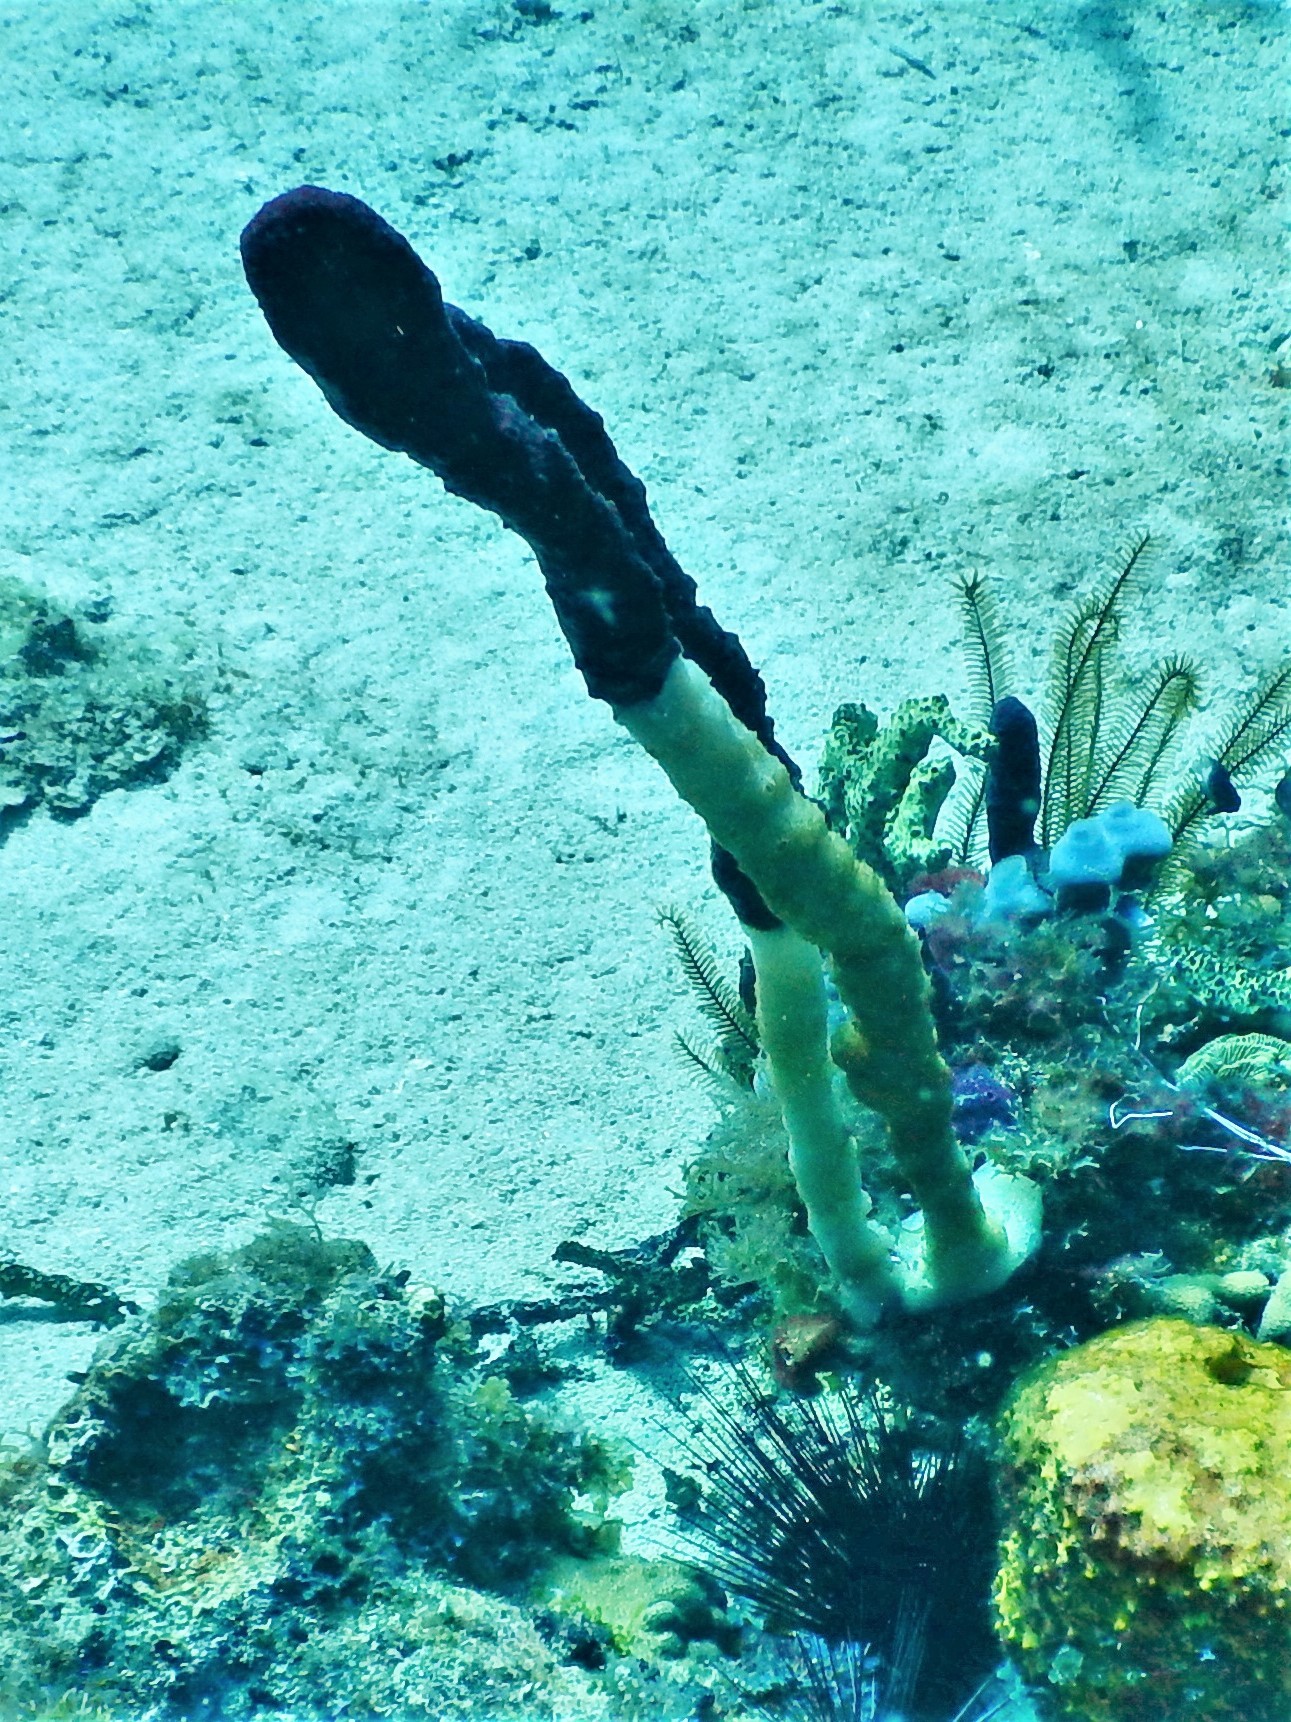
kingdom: Animalia
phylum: Porifera
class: Demospongiae
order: Haplosclerida
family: Niphatidae
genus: Amphimedon
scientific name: Amphimedon compressa
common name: Red sponge
